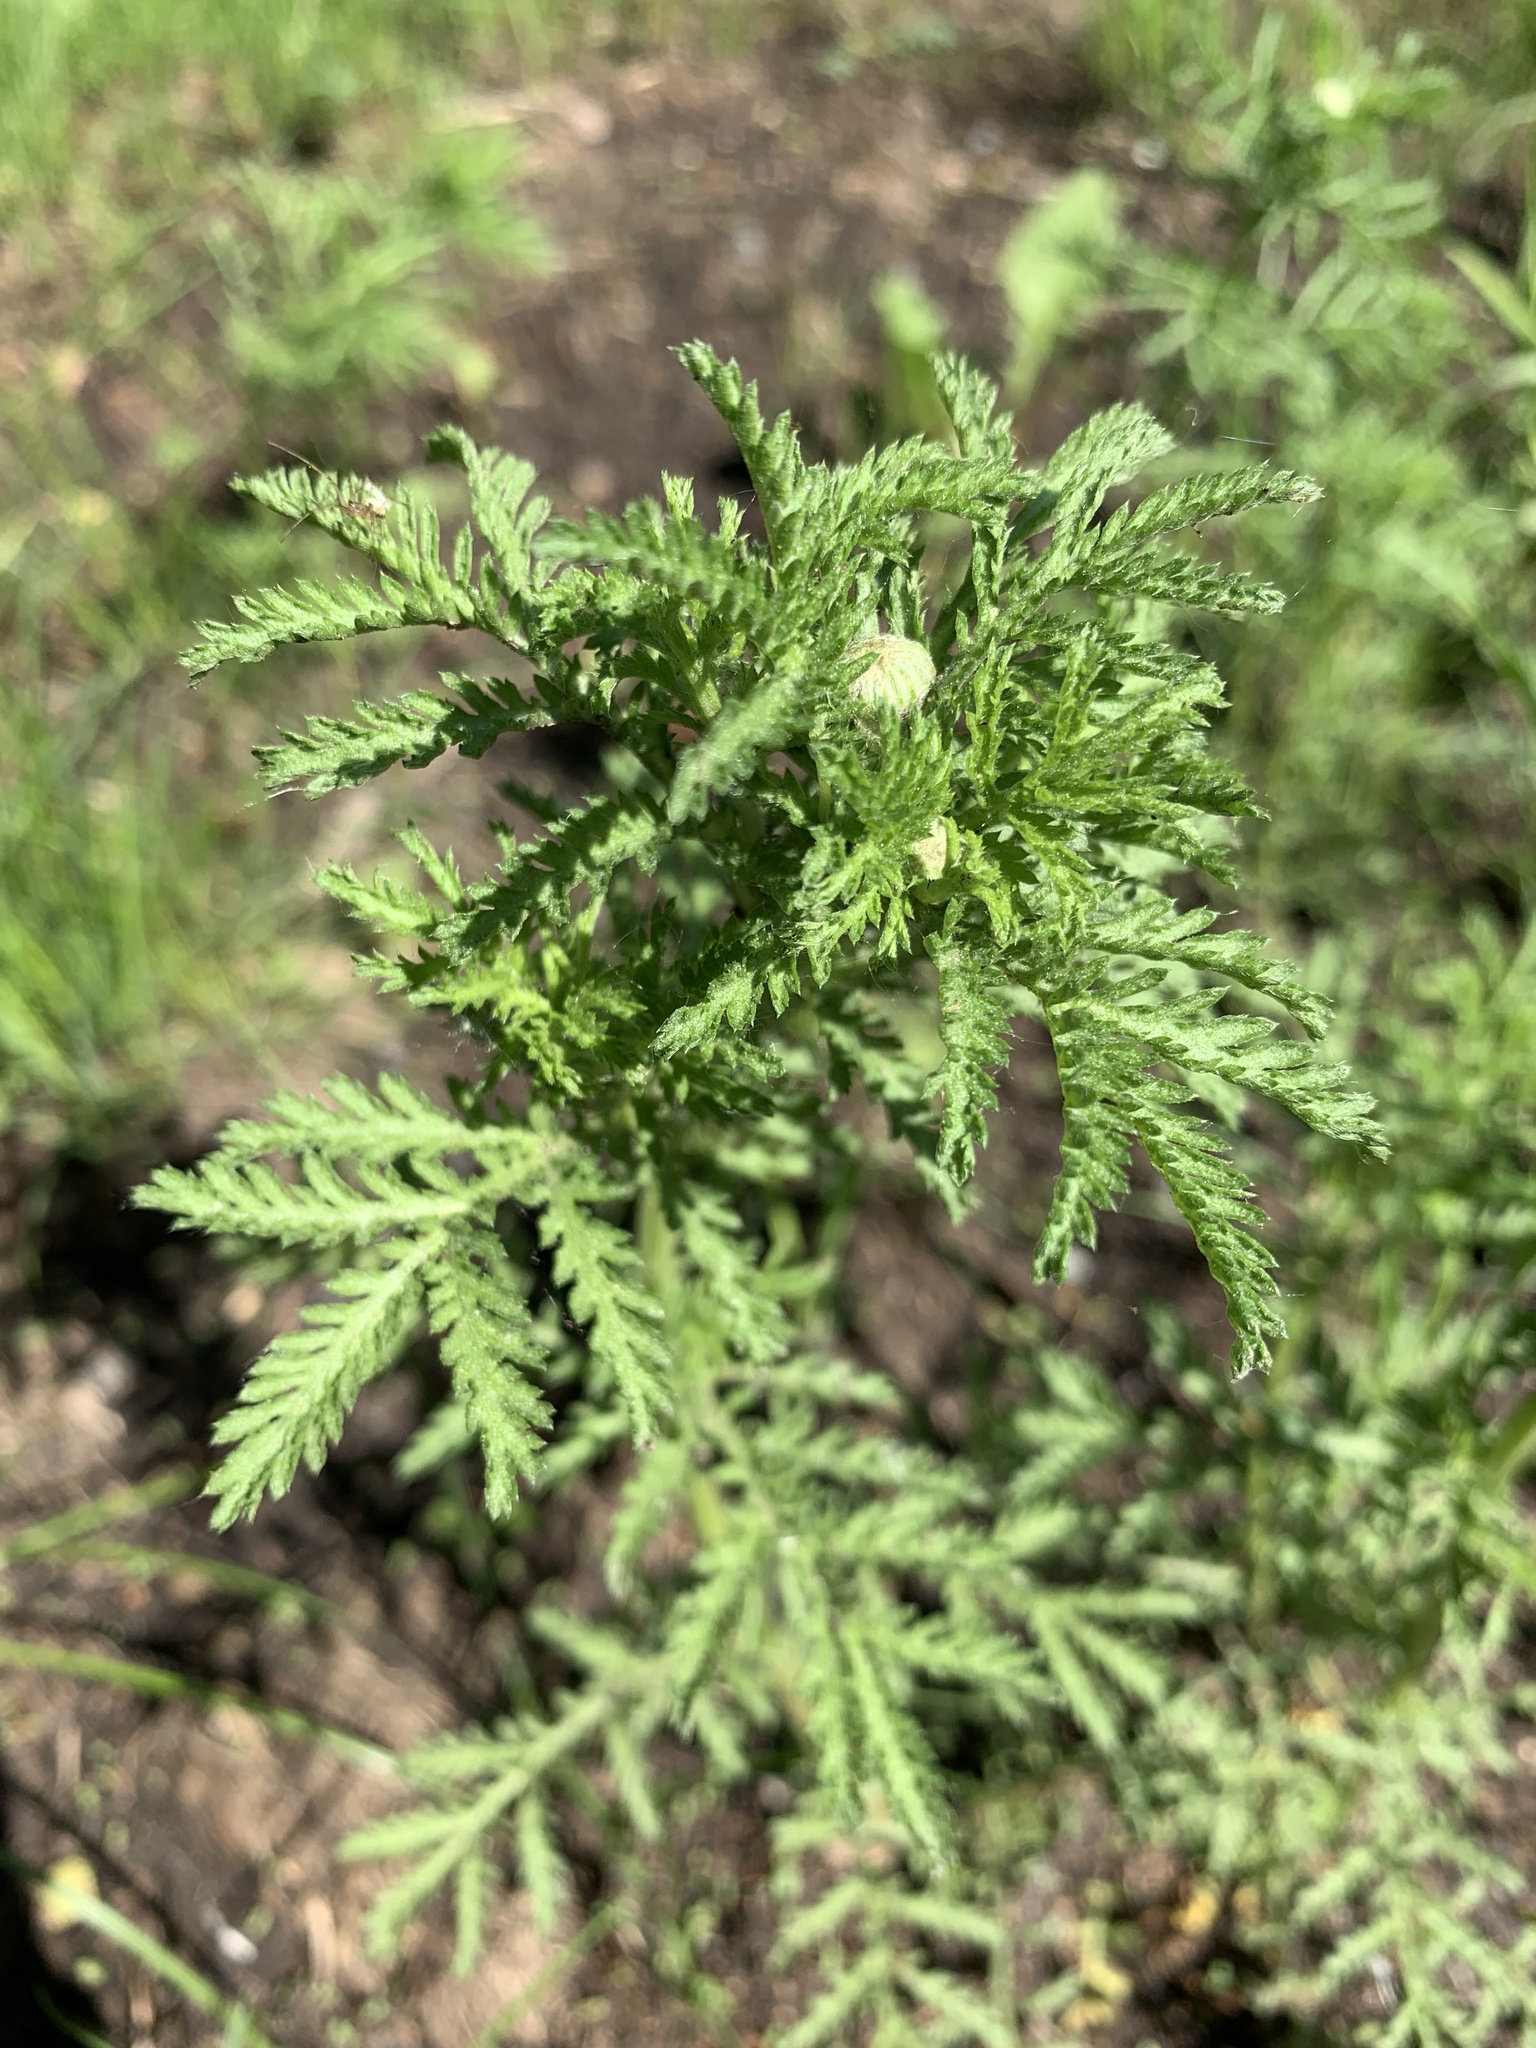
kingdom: Plantae
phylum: Tracheophyta
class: Magnoliopsida
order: Asterales
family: Asteraceae
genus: Cota
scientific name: Cota tinctoria
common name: Golden chamomile
